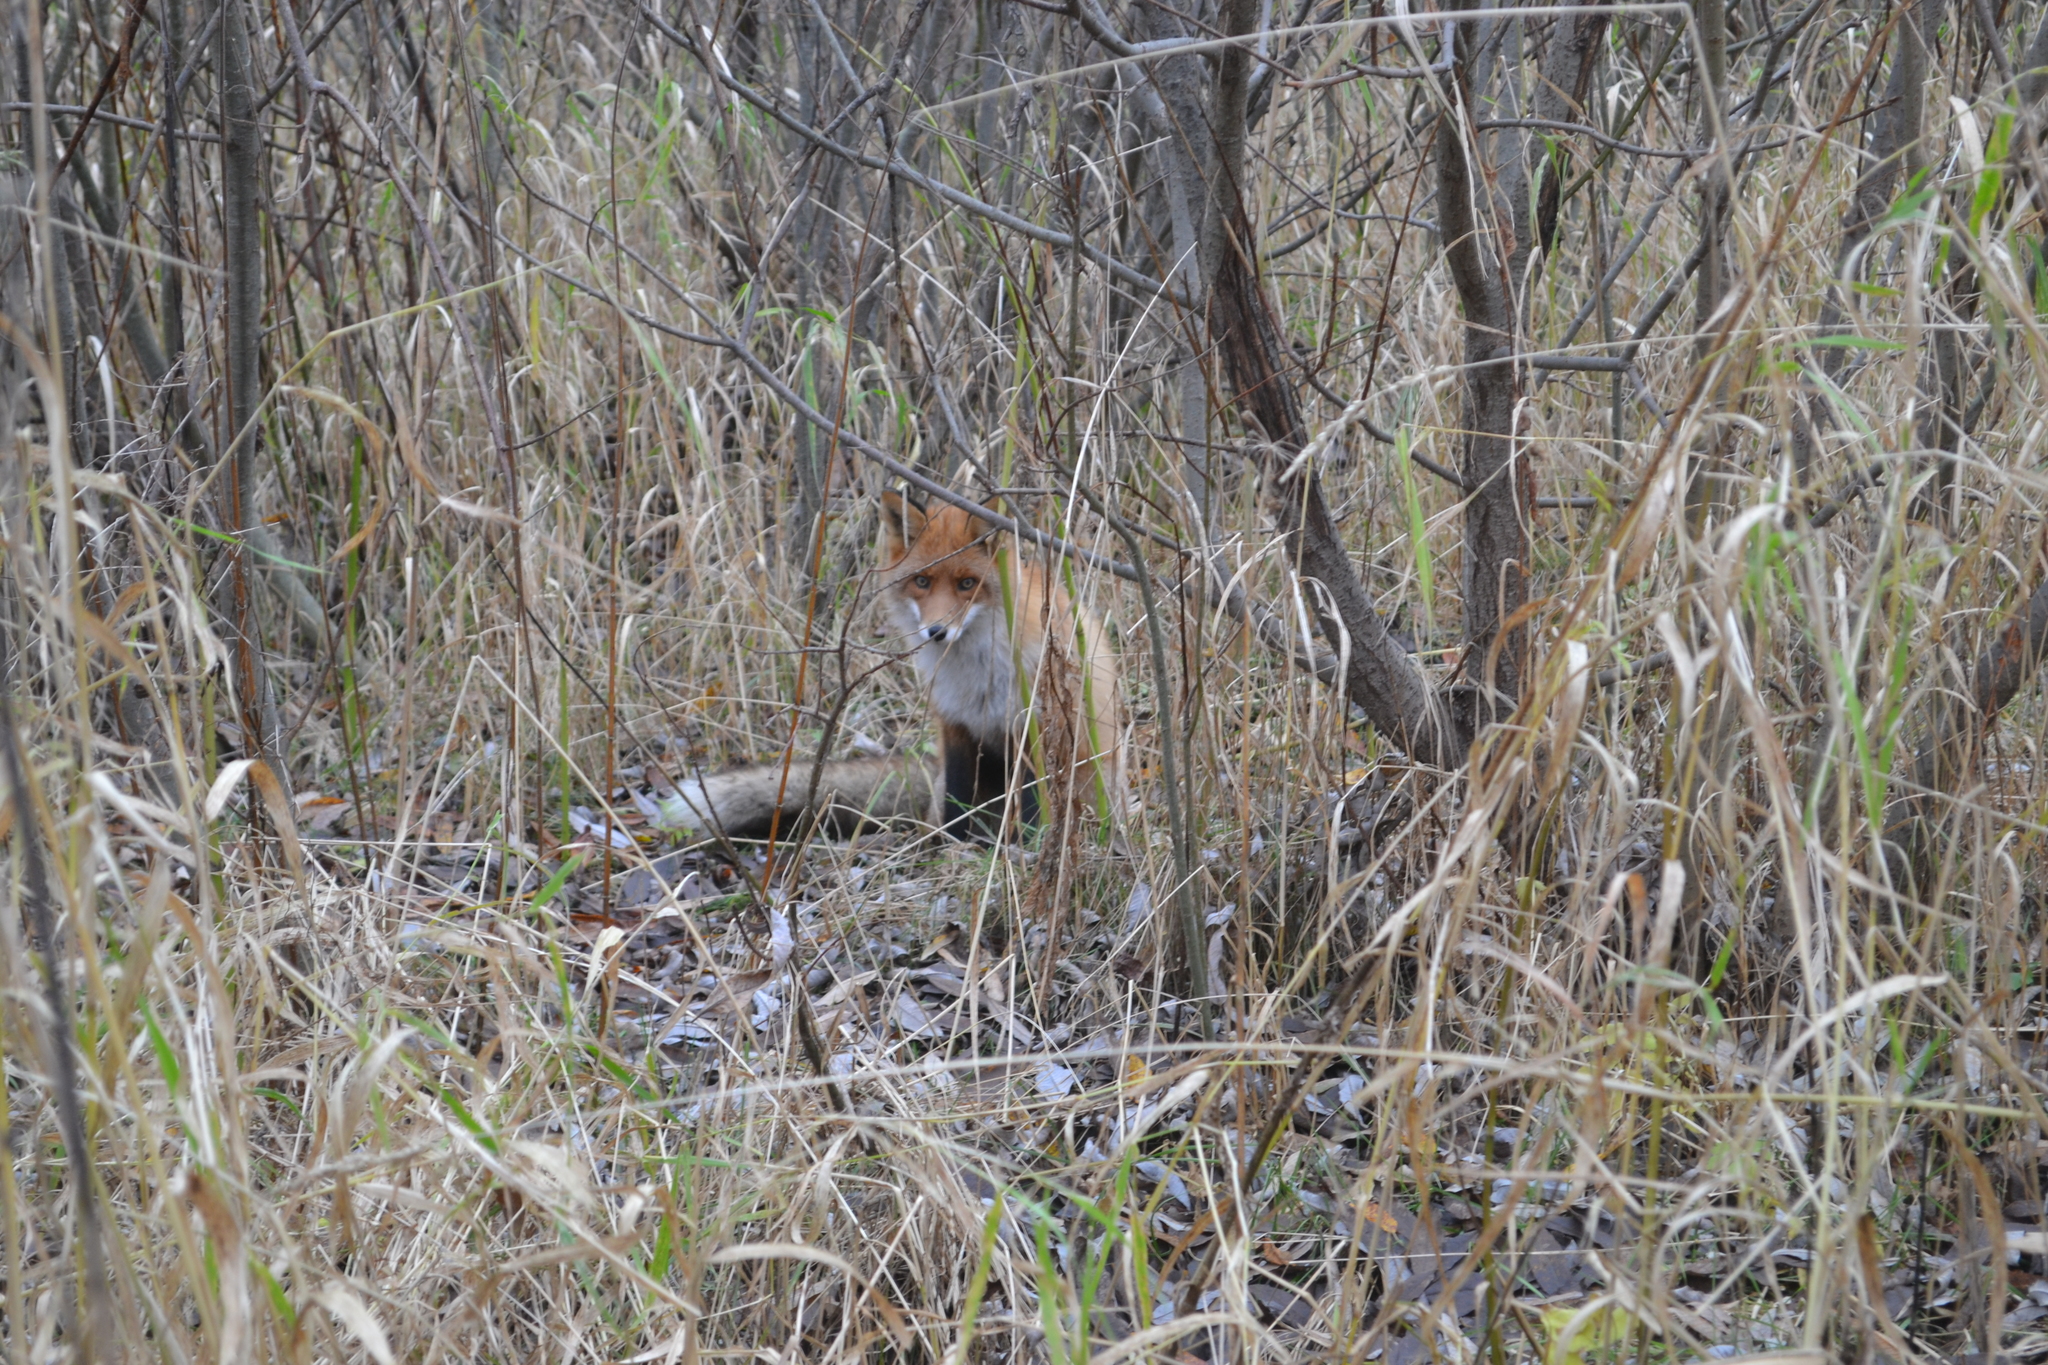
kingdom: Animalia
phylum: Chordata
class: Mammalia
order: Carnivora
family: Canidae
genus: Vulpes
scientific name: Vulpes vulpes
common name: Red fox
